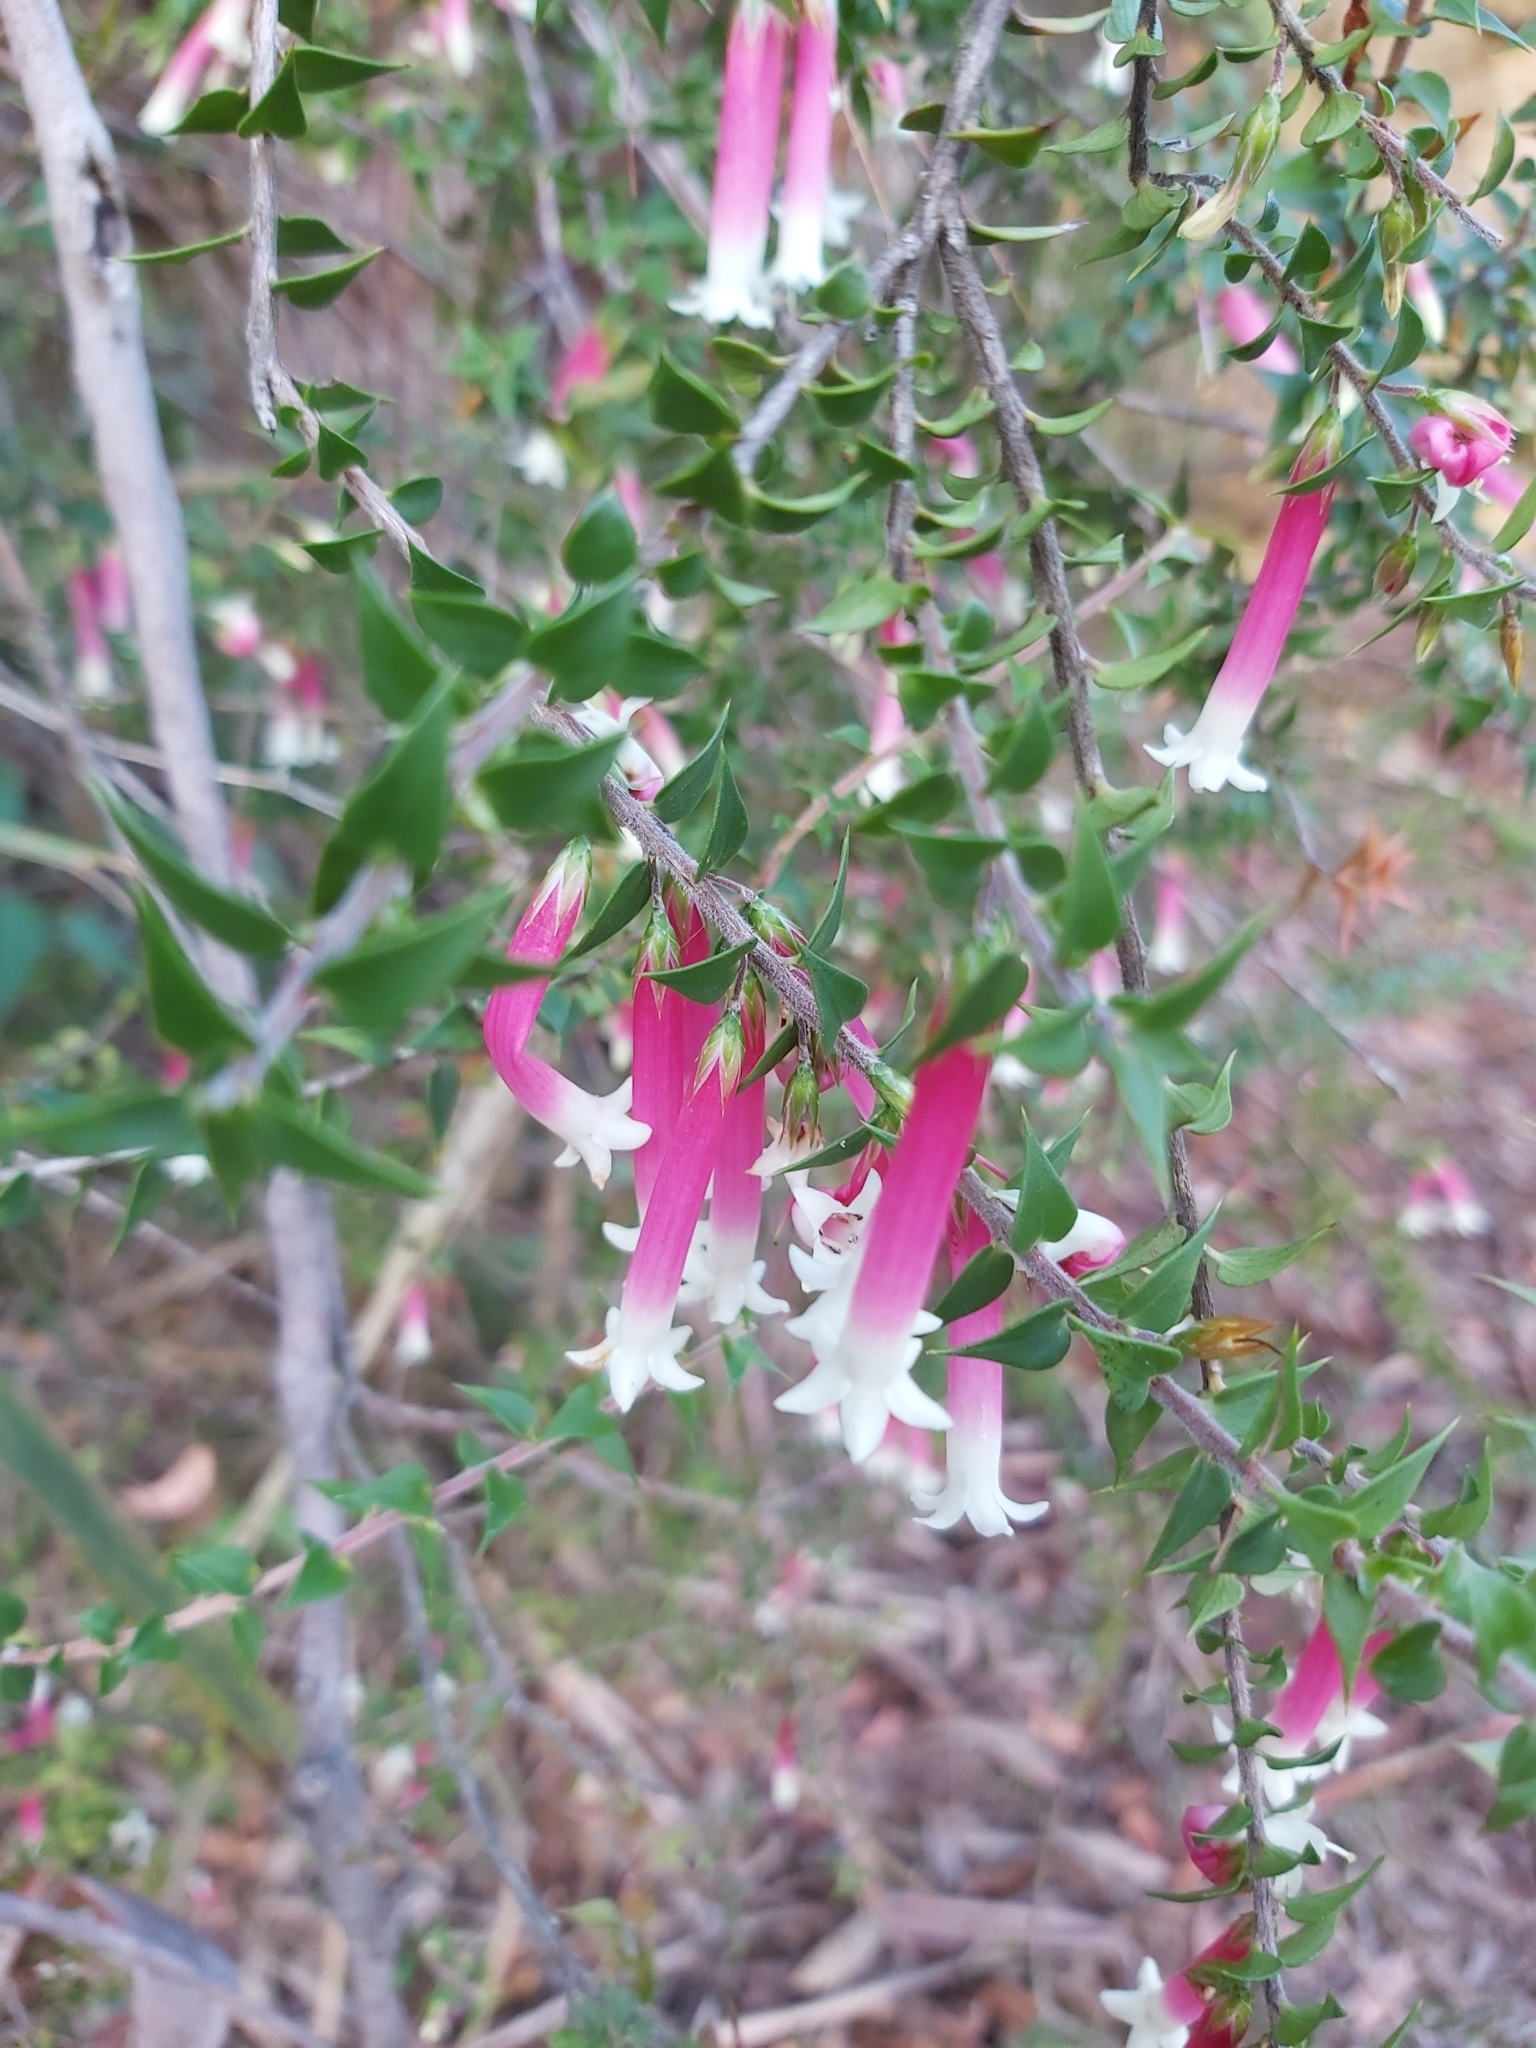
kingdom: Plantae
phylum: Tracheophyta
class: Magnoliopsida
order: Ericales
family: Ericaceae
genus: Epacris
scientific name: Epacris longiflora
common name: Fuchsia-heath
